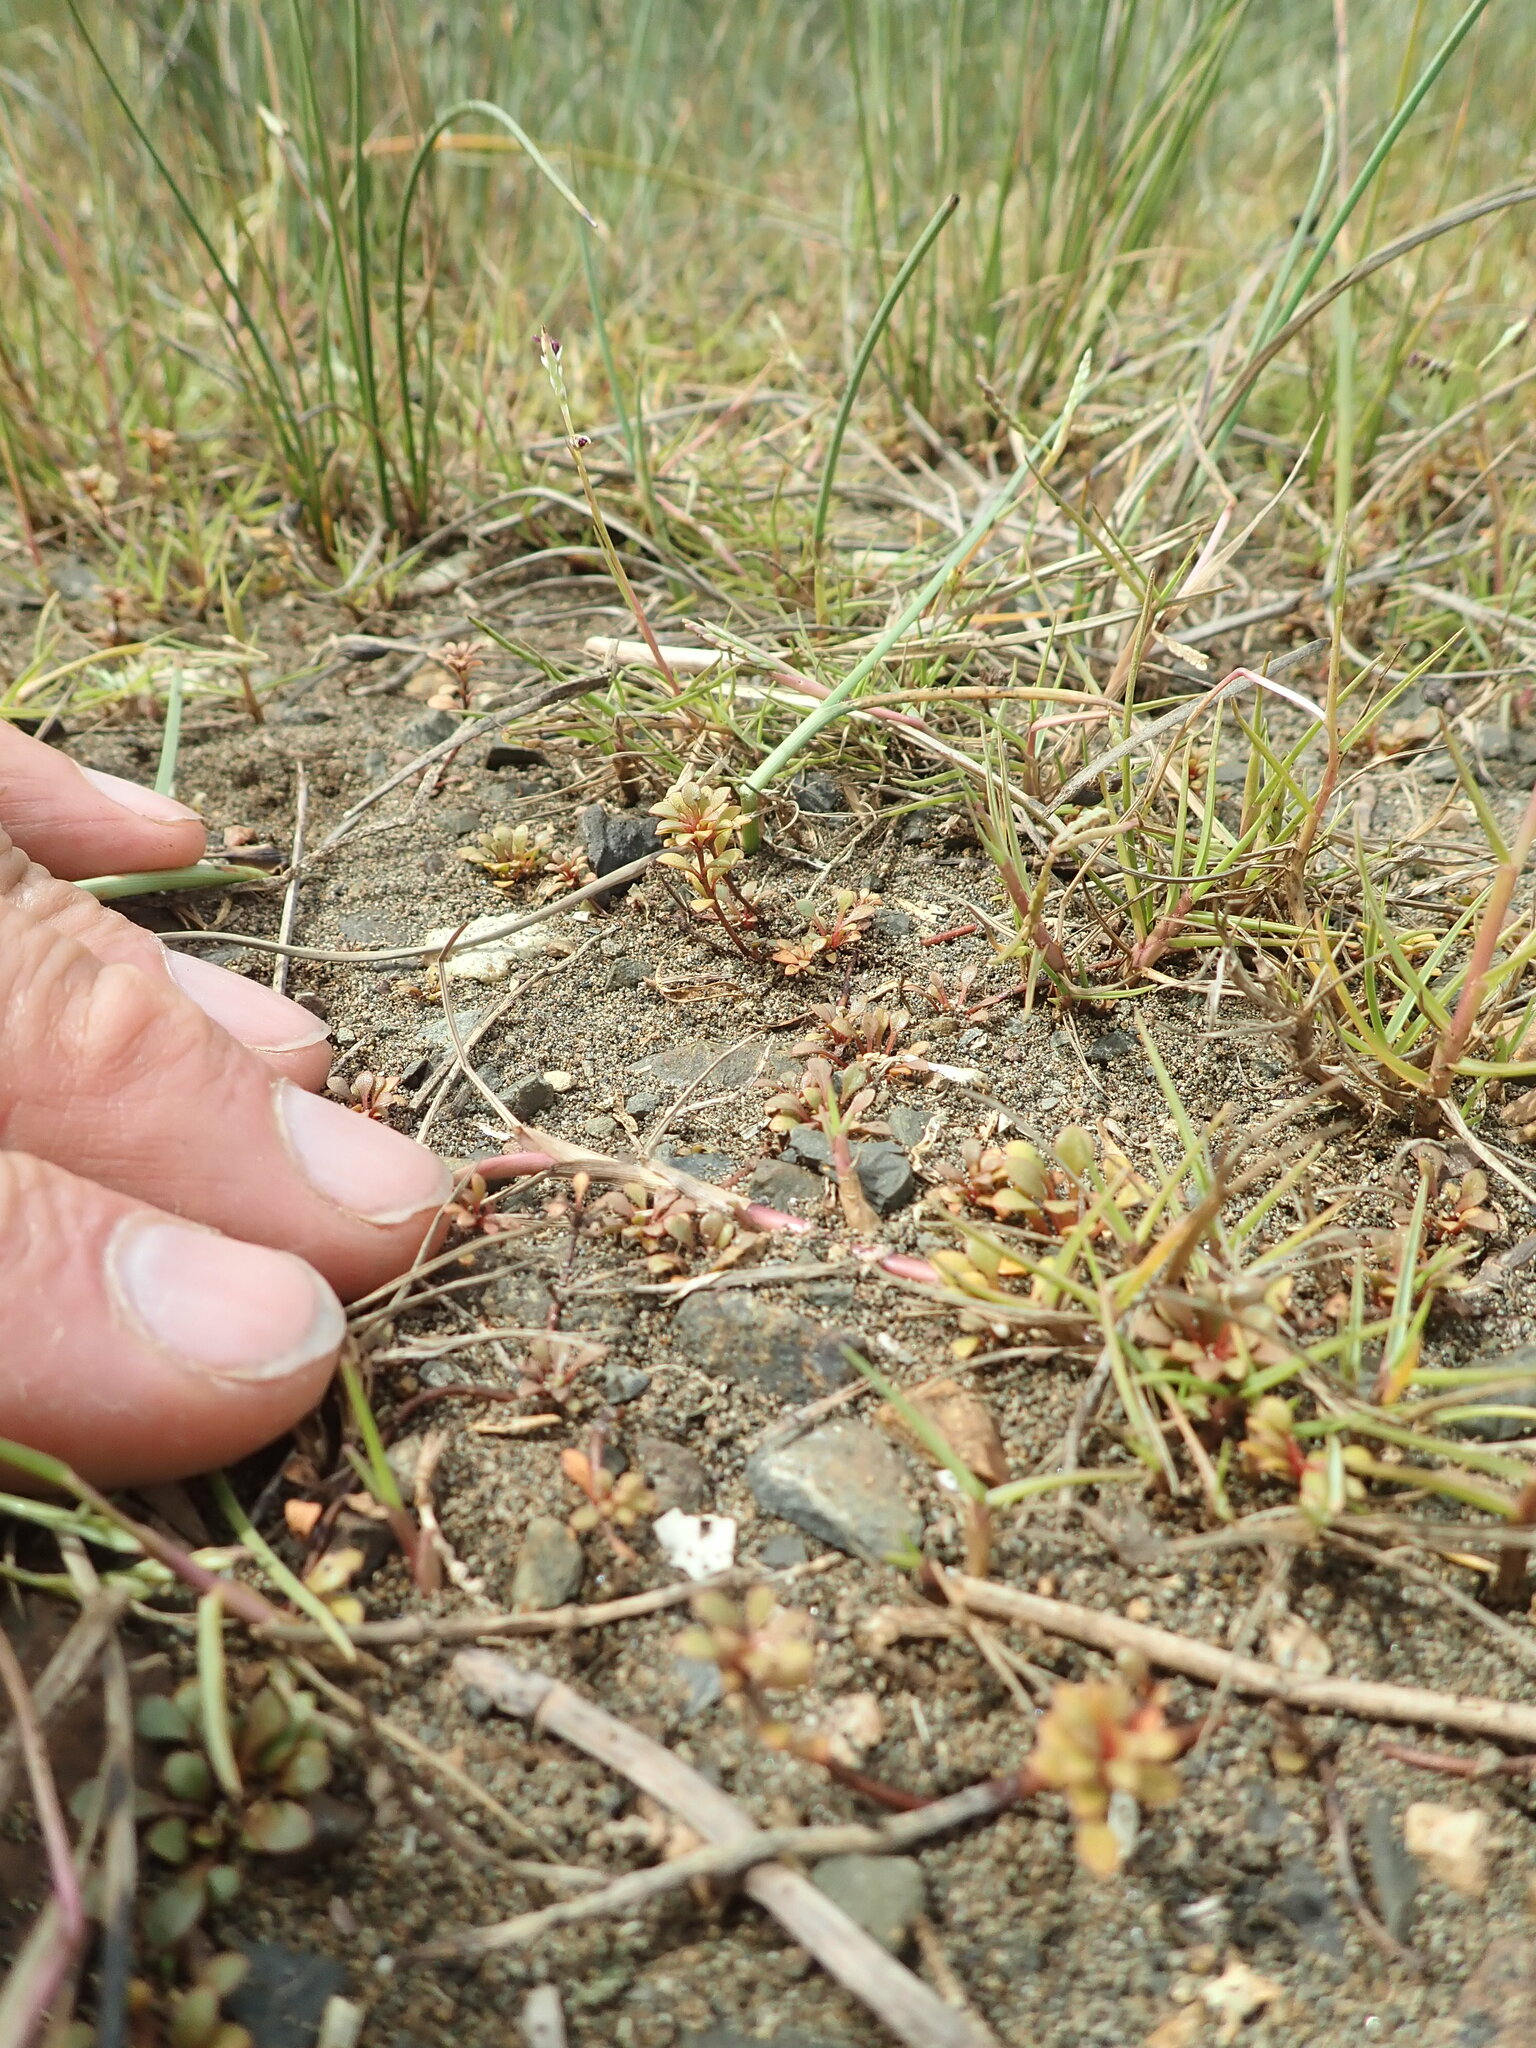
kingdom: Plantae
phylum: Tracheophyta
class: Magnoliopsida
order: Ericales
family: Primulaceae
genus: Samolus
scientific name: Samolus repens
